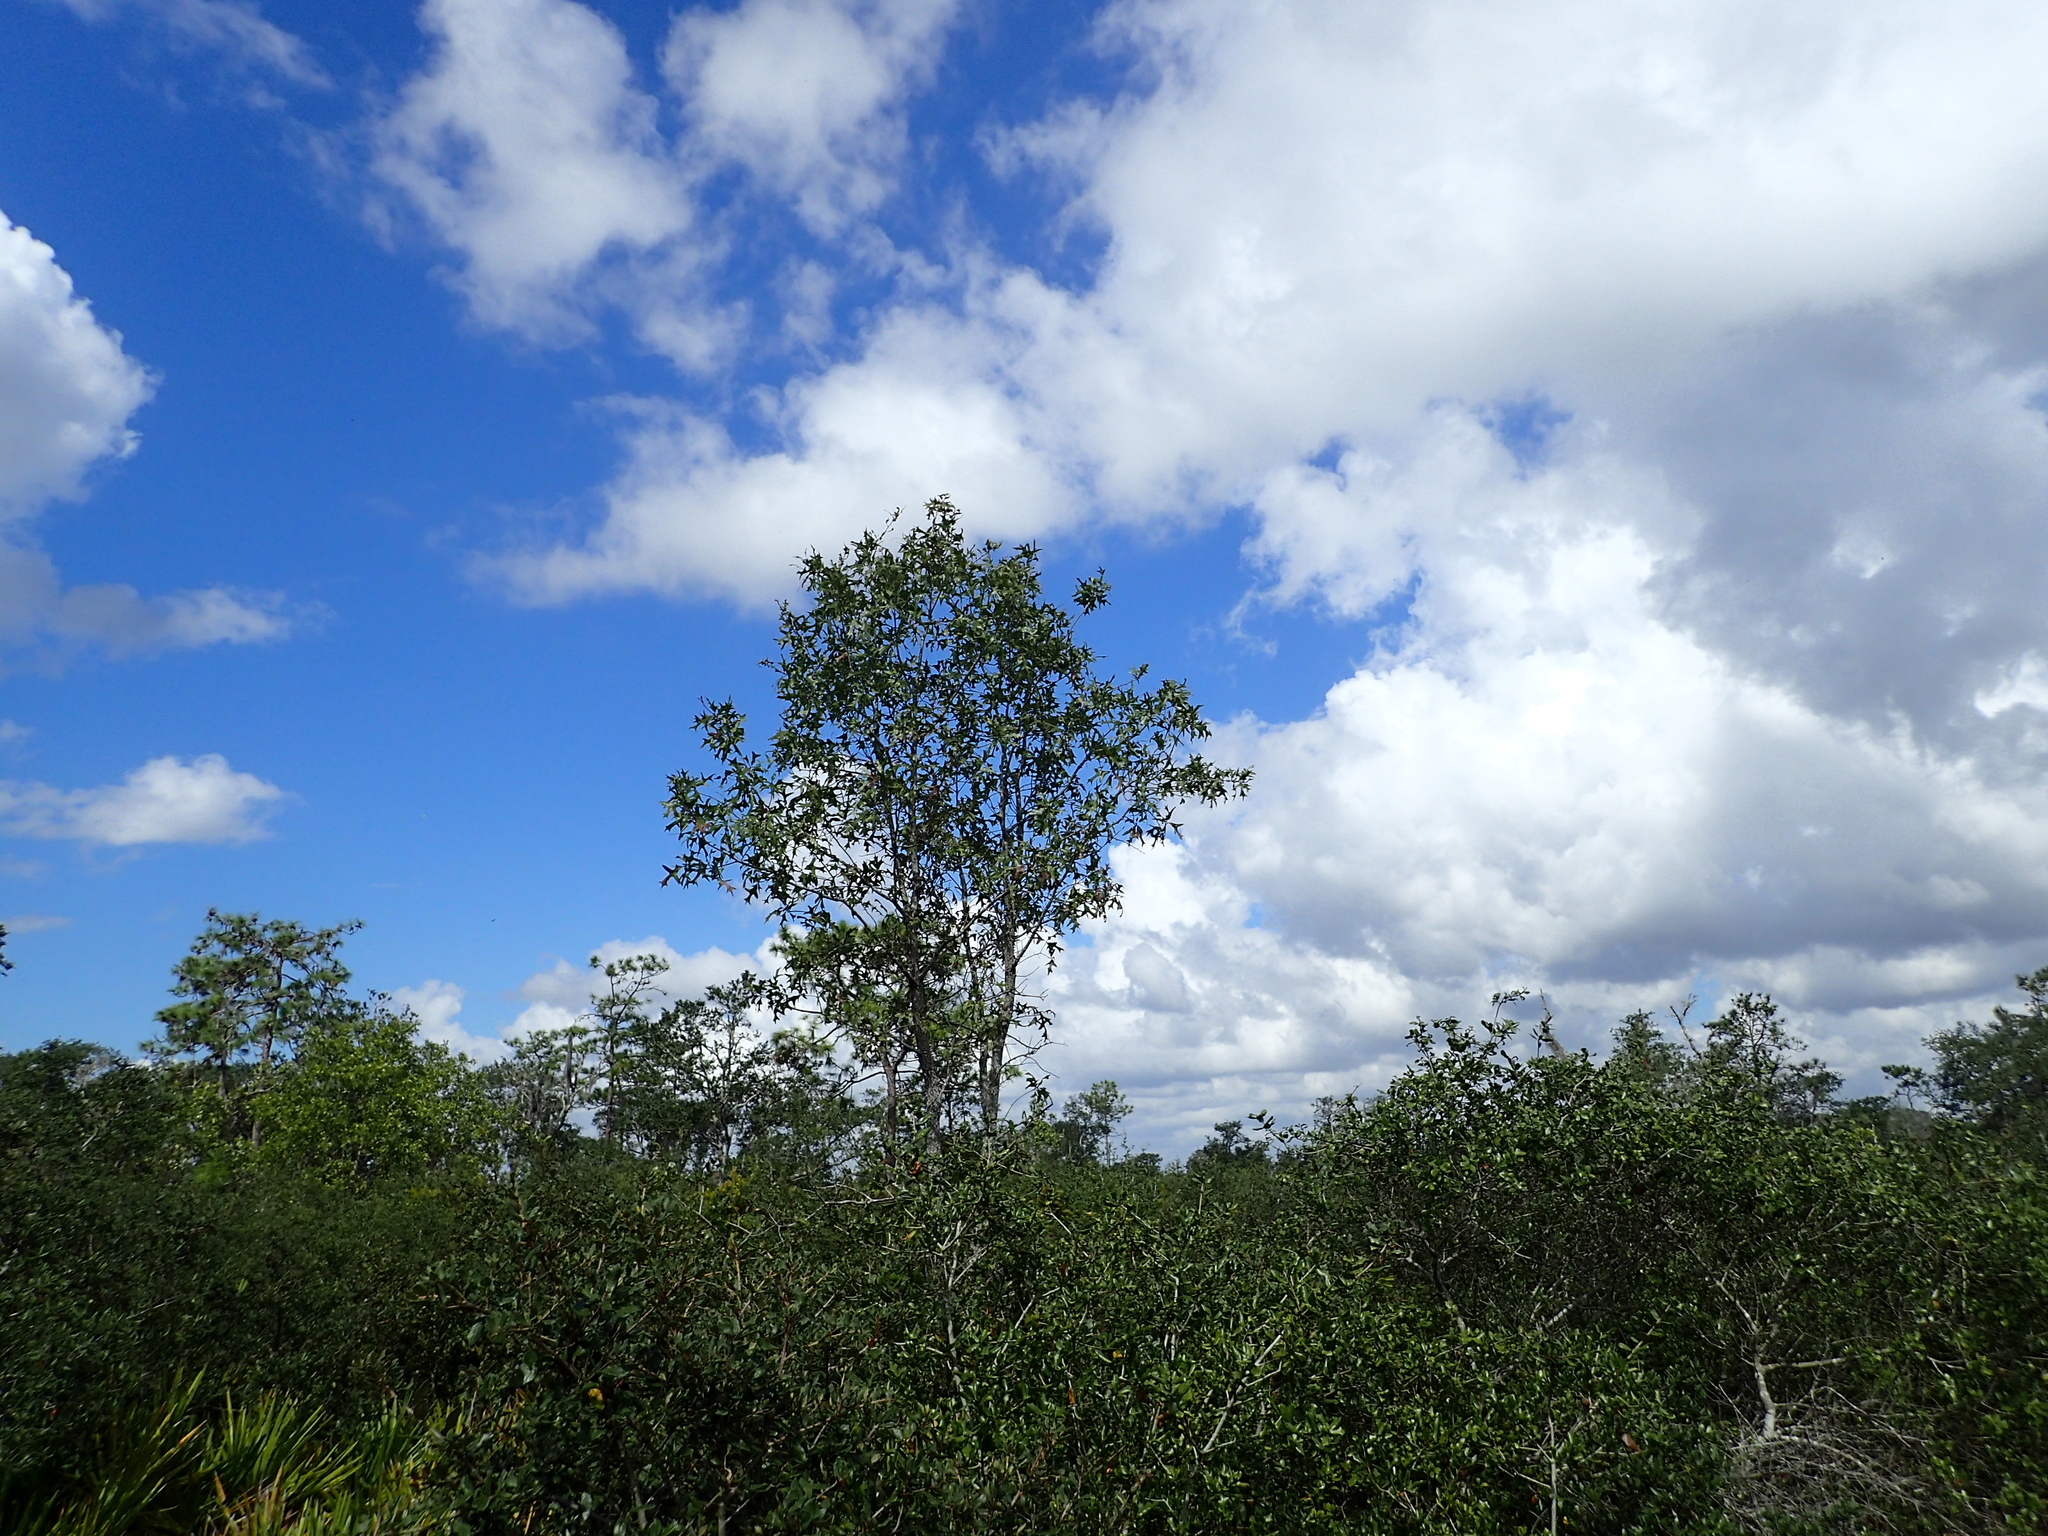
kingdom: Plantae
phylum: Tracheophyta
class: Magnoliopsida
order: Fagales
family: Fagaceae
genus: Quercus
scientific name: Quercus laevis
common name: Turkey oak
